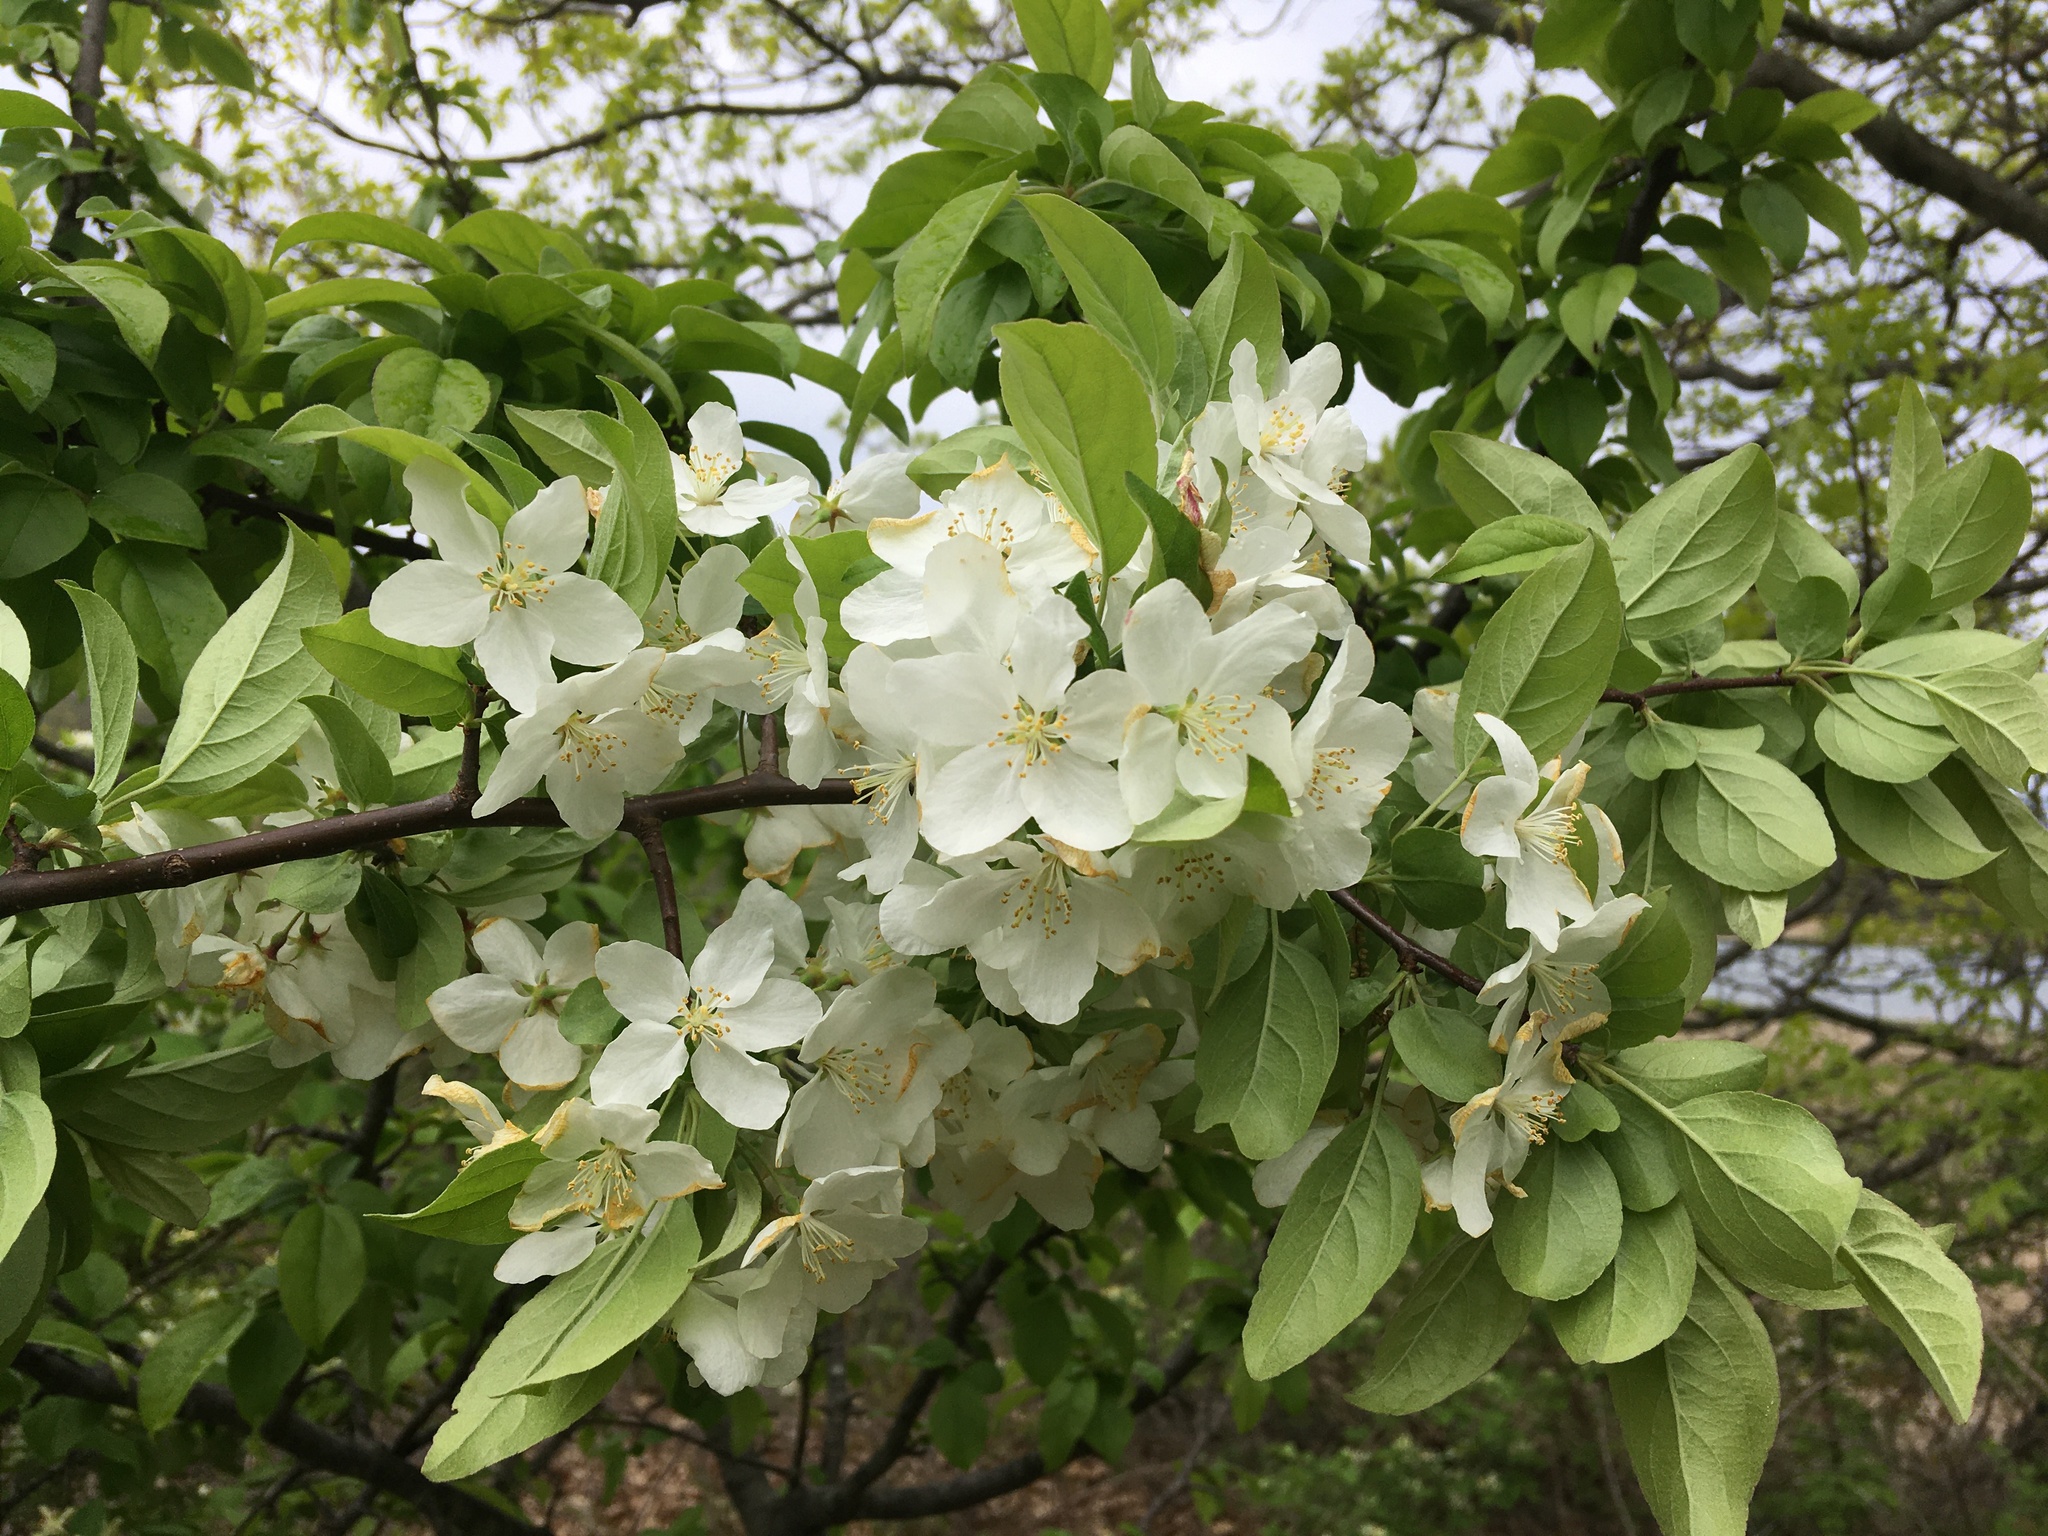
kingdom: Plantae
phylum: Tracheophyta
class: Magnoliopsida
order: Rosales
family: Rosaceae
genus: Malus
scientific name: Malus domestica
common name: Apple
